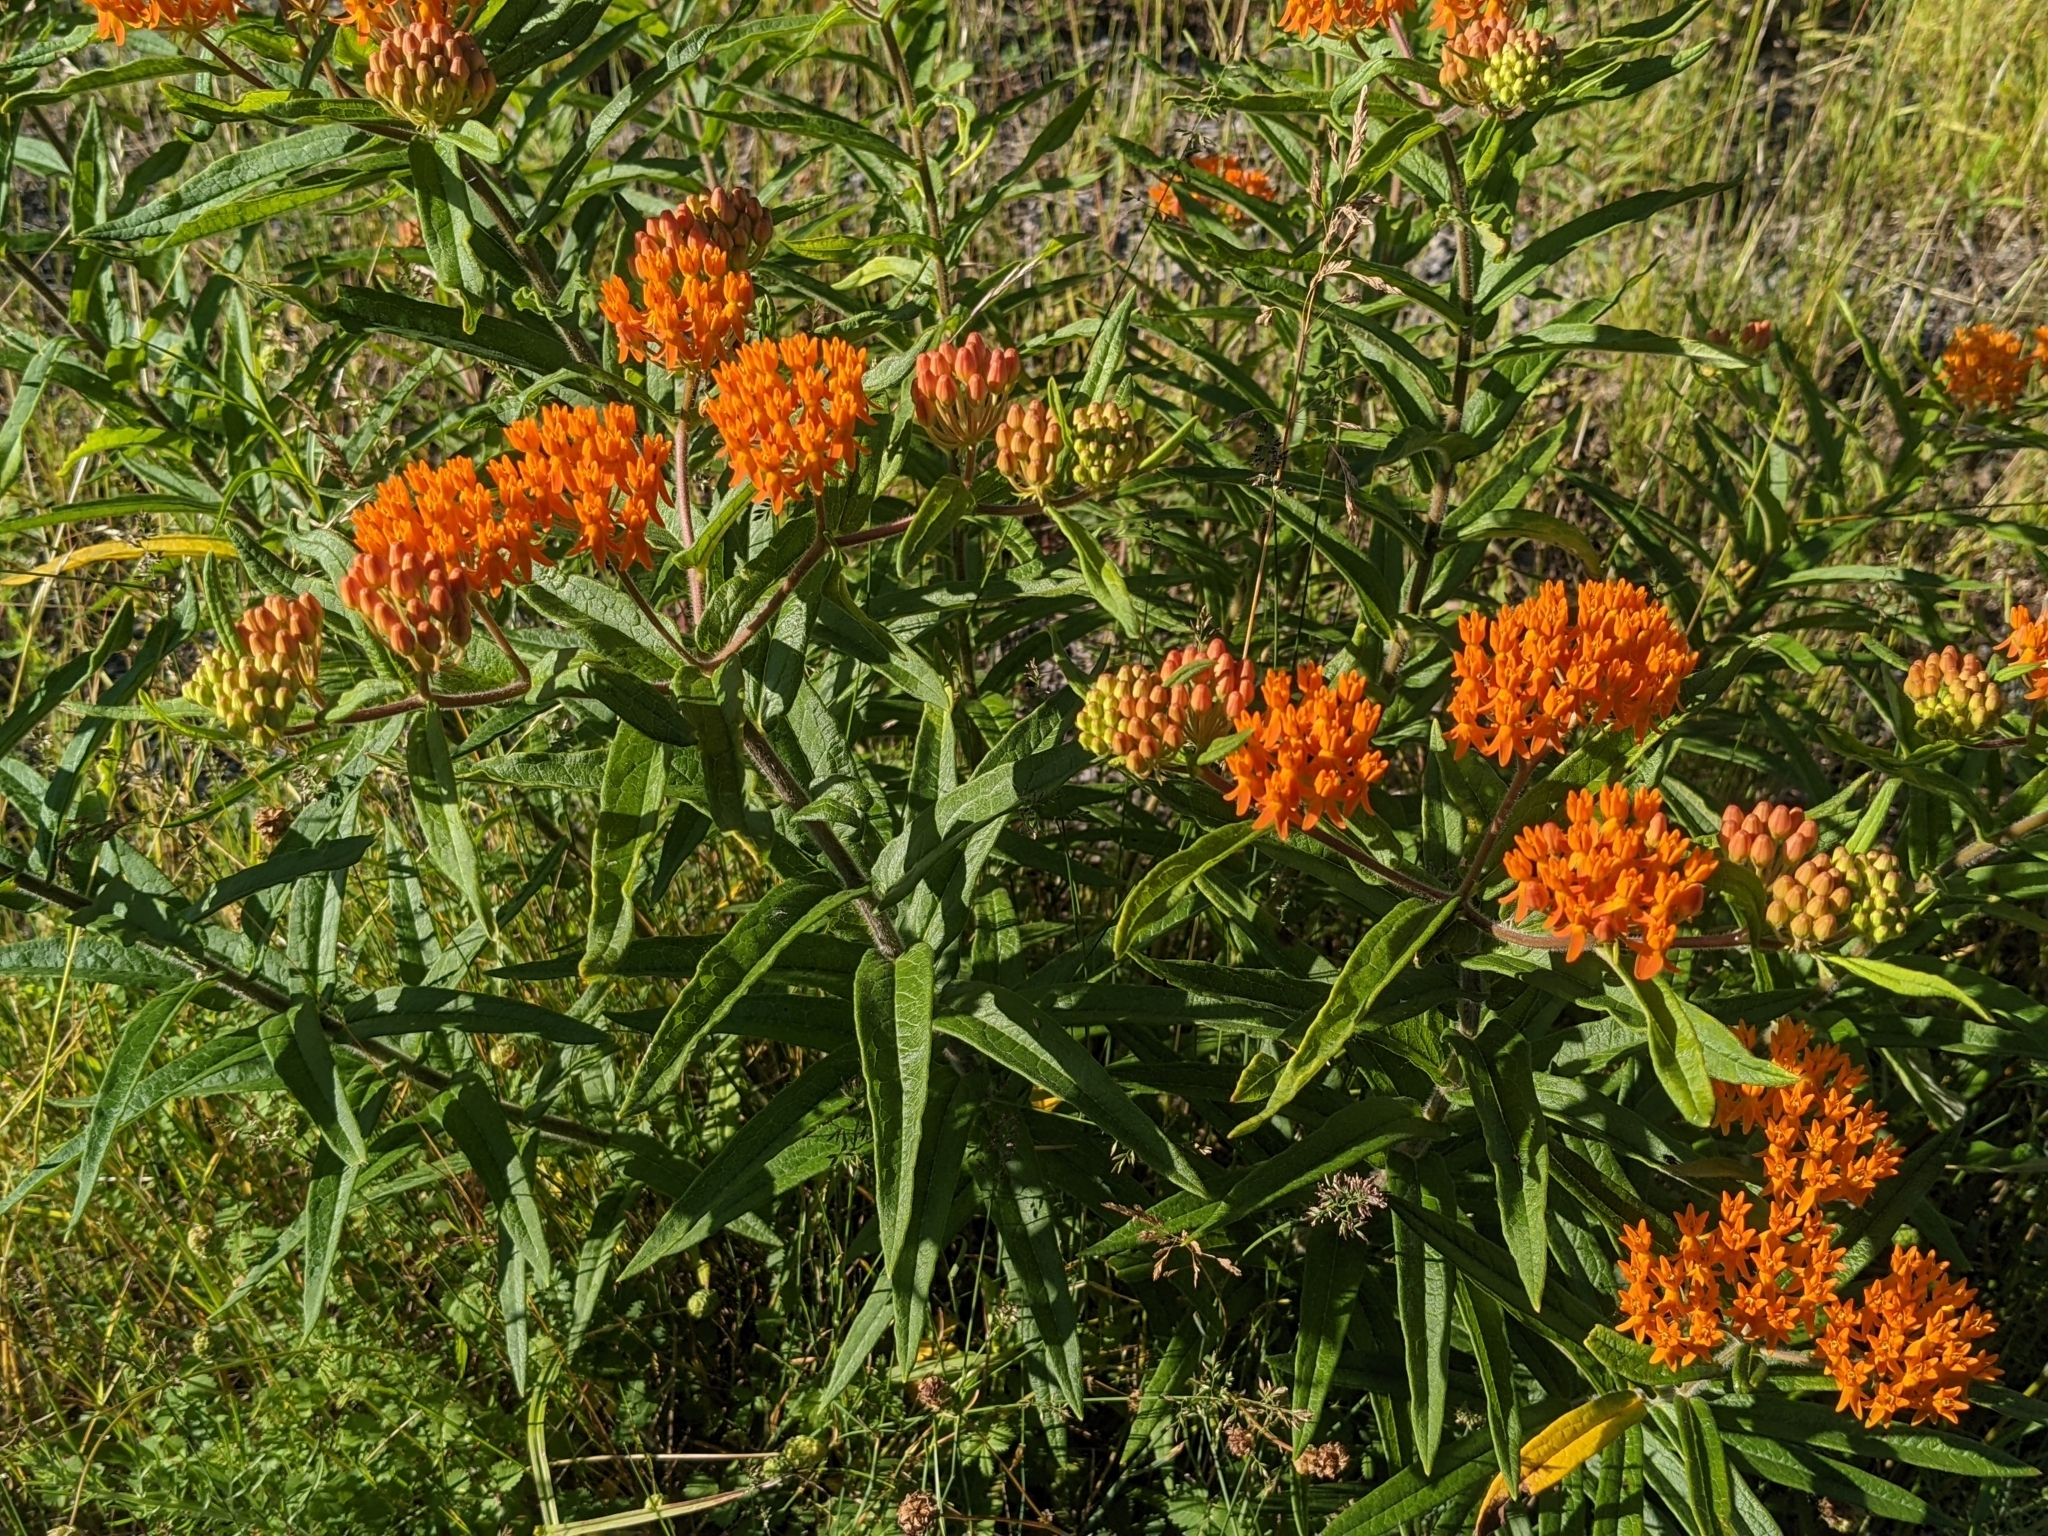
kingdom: Plantae
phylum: Tracheophyta
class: Magnoliopsida
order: Gentianales
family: Apocynaceae
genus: Asclepias
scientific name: Asclepias tuberosa
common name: Butterfly milkweed
